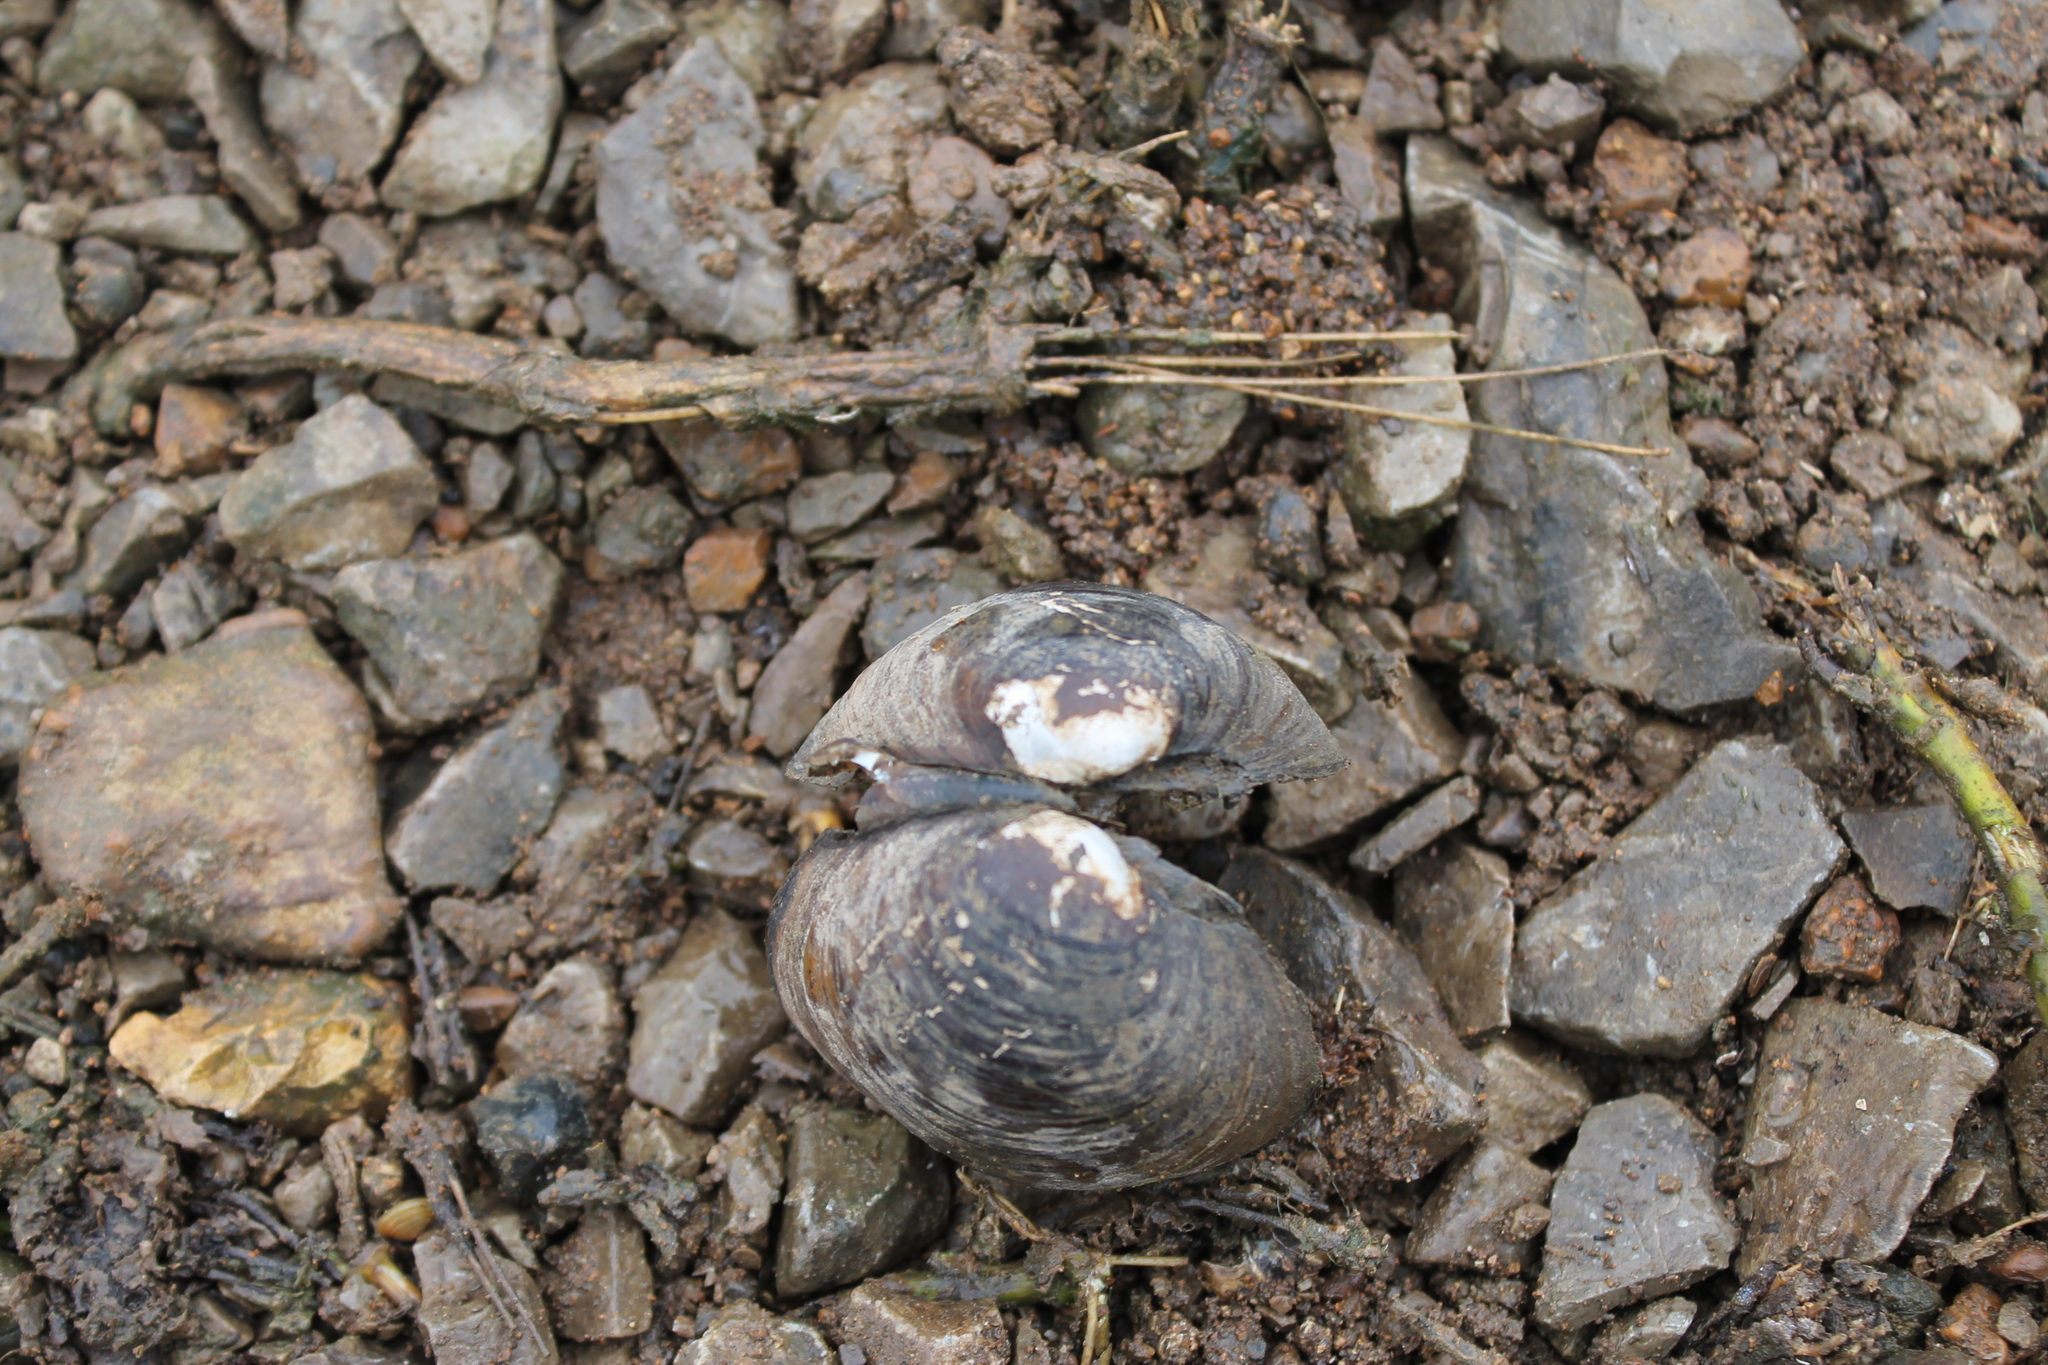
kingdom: Animalia
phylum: Mollusca
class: Bivalvia
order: Unionida
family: Unionidae
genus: Obovaria
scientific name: Obovaria subrotunda
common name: Round hickorynut
